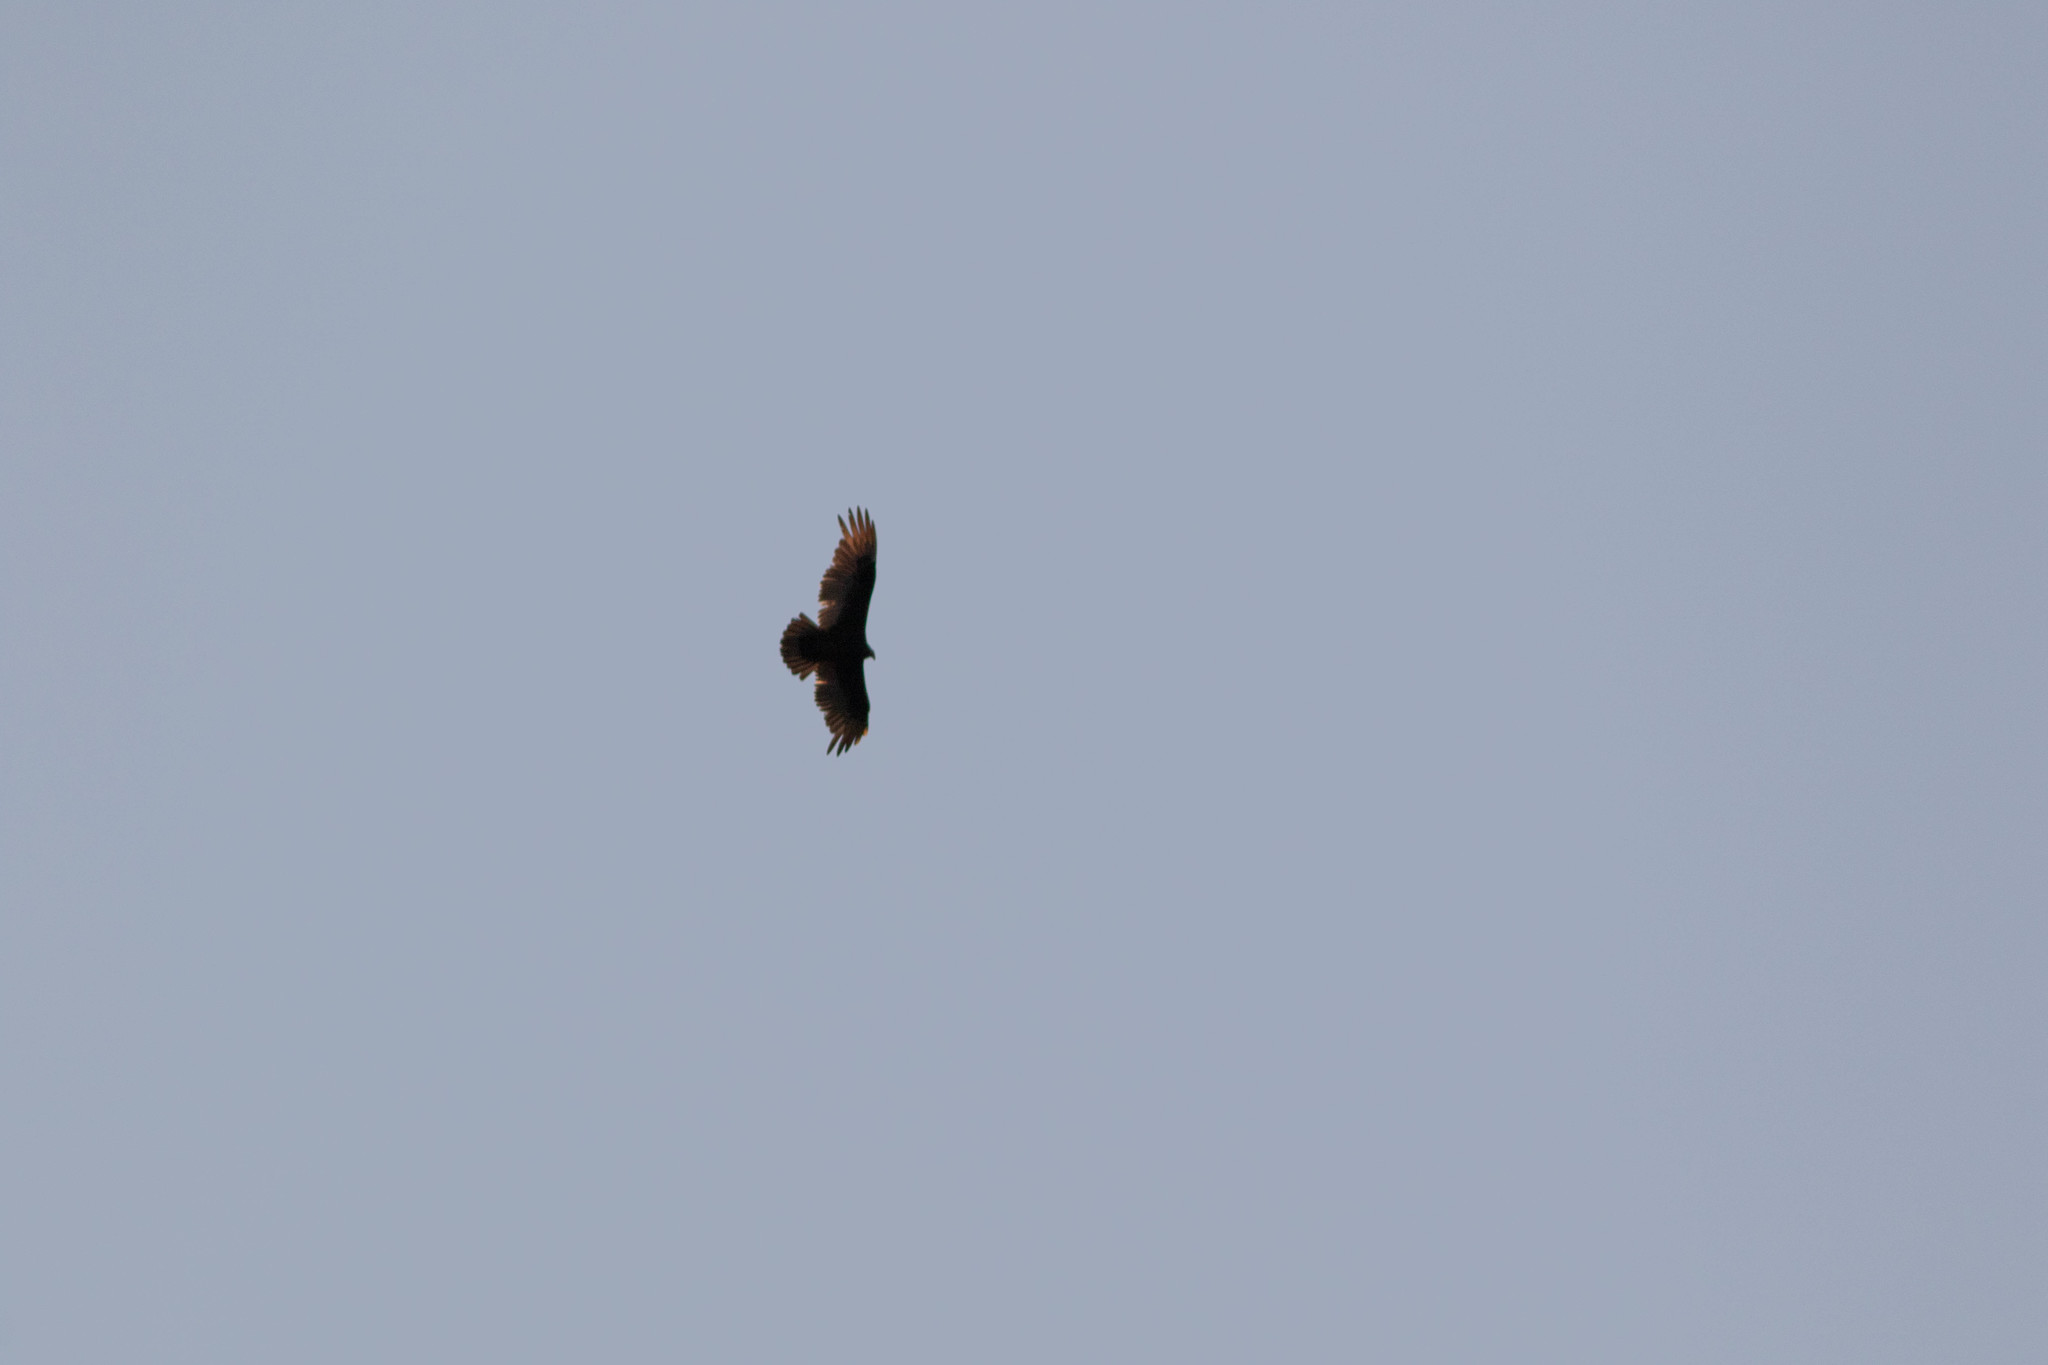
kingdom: Animalia
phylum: Chordata
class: Aves
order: Accipitriformes
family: Cathartidae
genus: Cathartes
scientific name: Cathartes aura
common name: Turkey vulture
